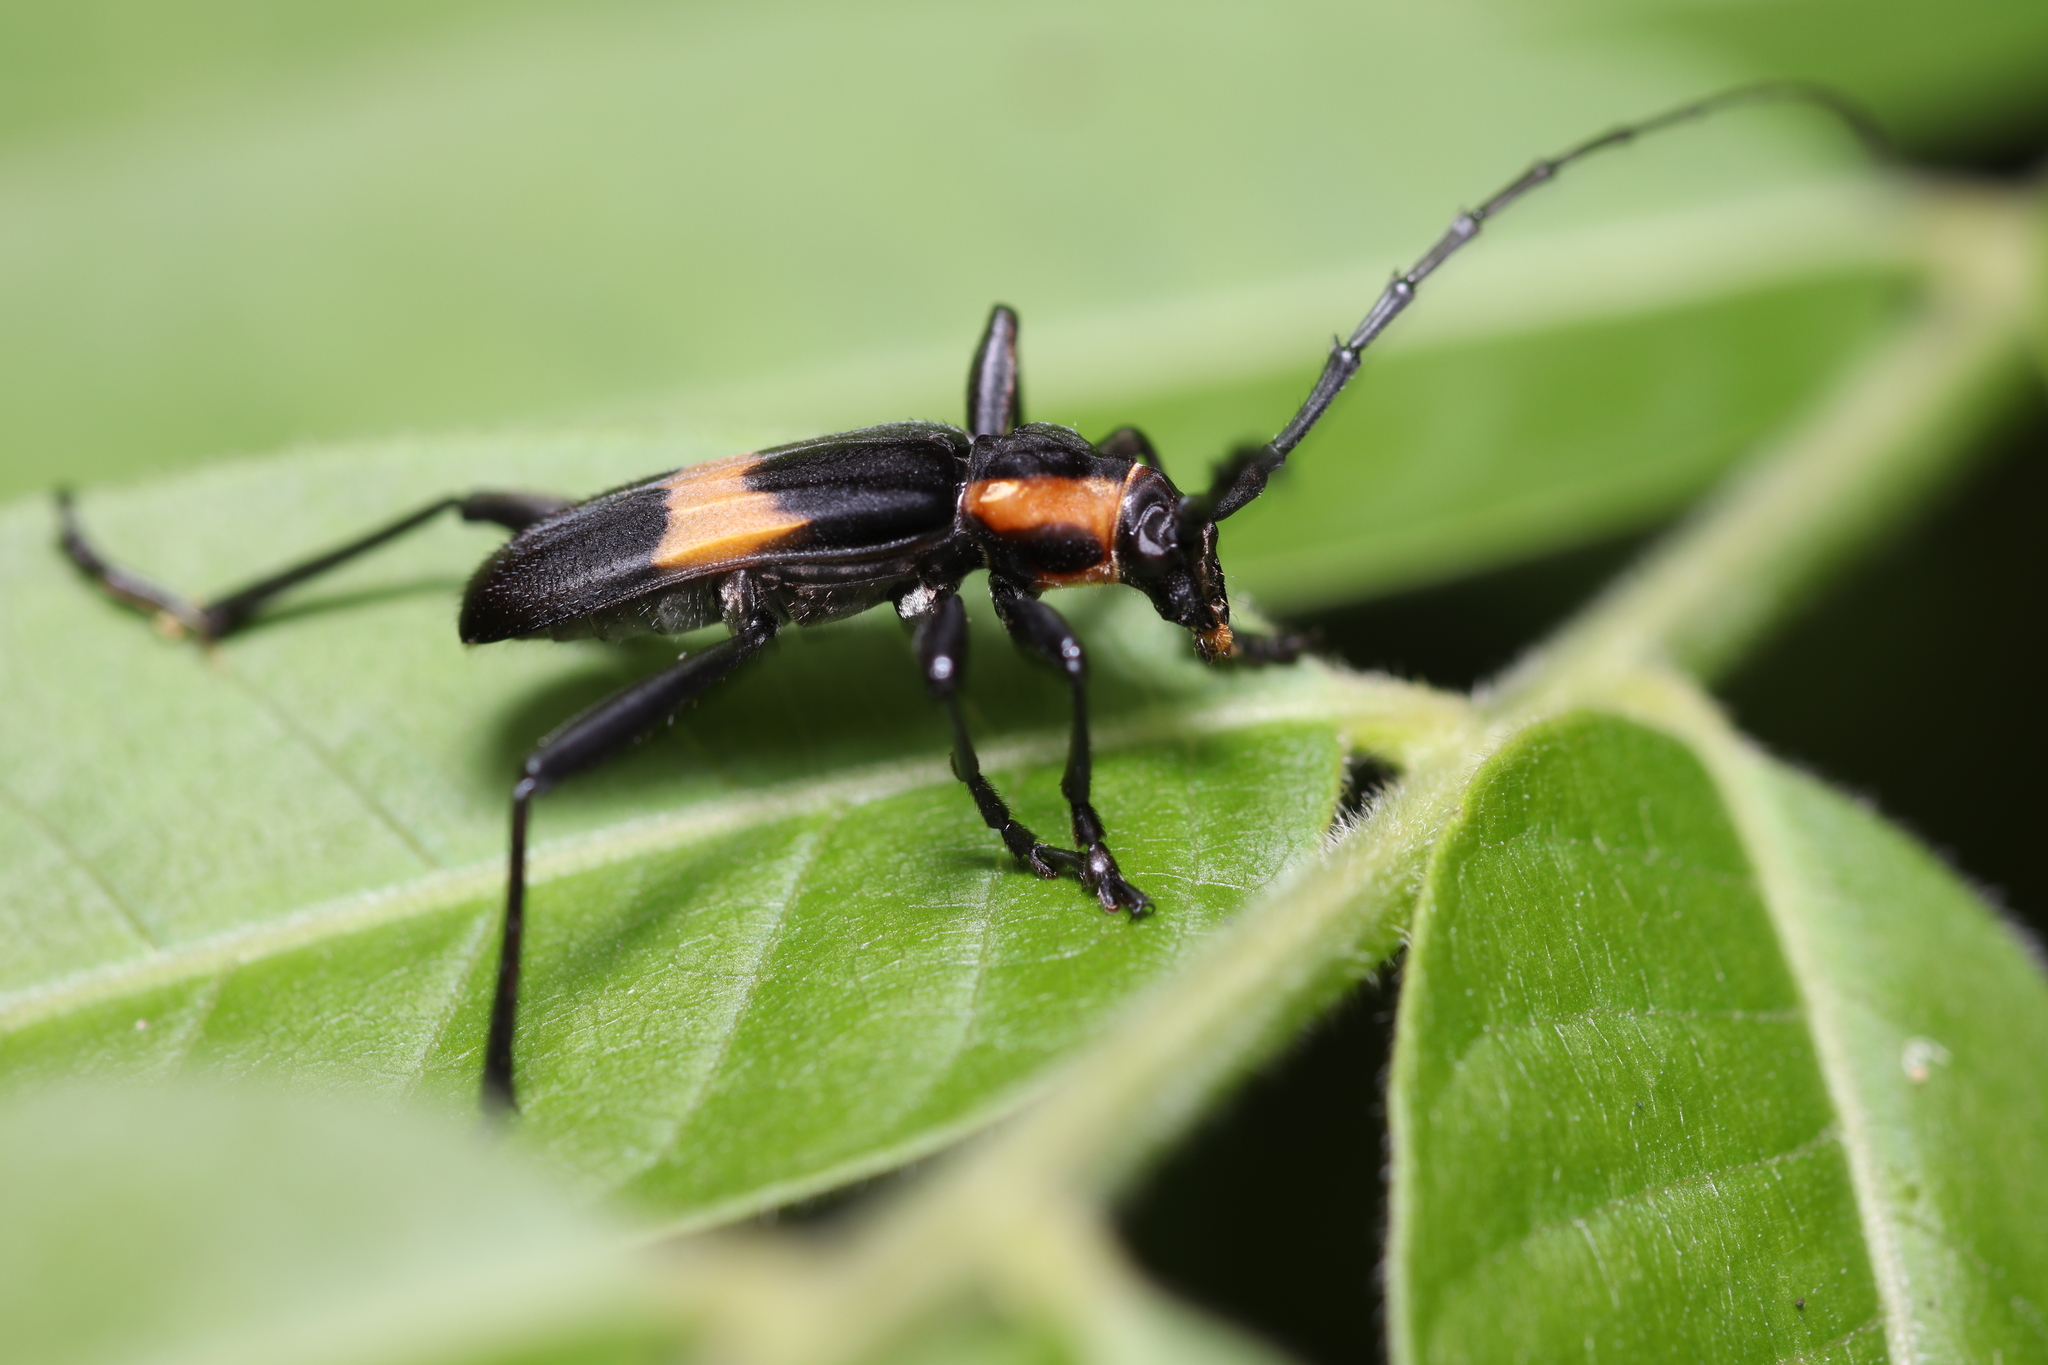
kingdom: Animalia
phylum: Arthropoda
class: Insecta
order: Coleoptera
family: Cerambycidae
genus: Mallosoma
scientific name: Mallosoma zonatum
